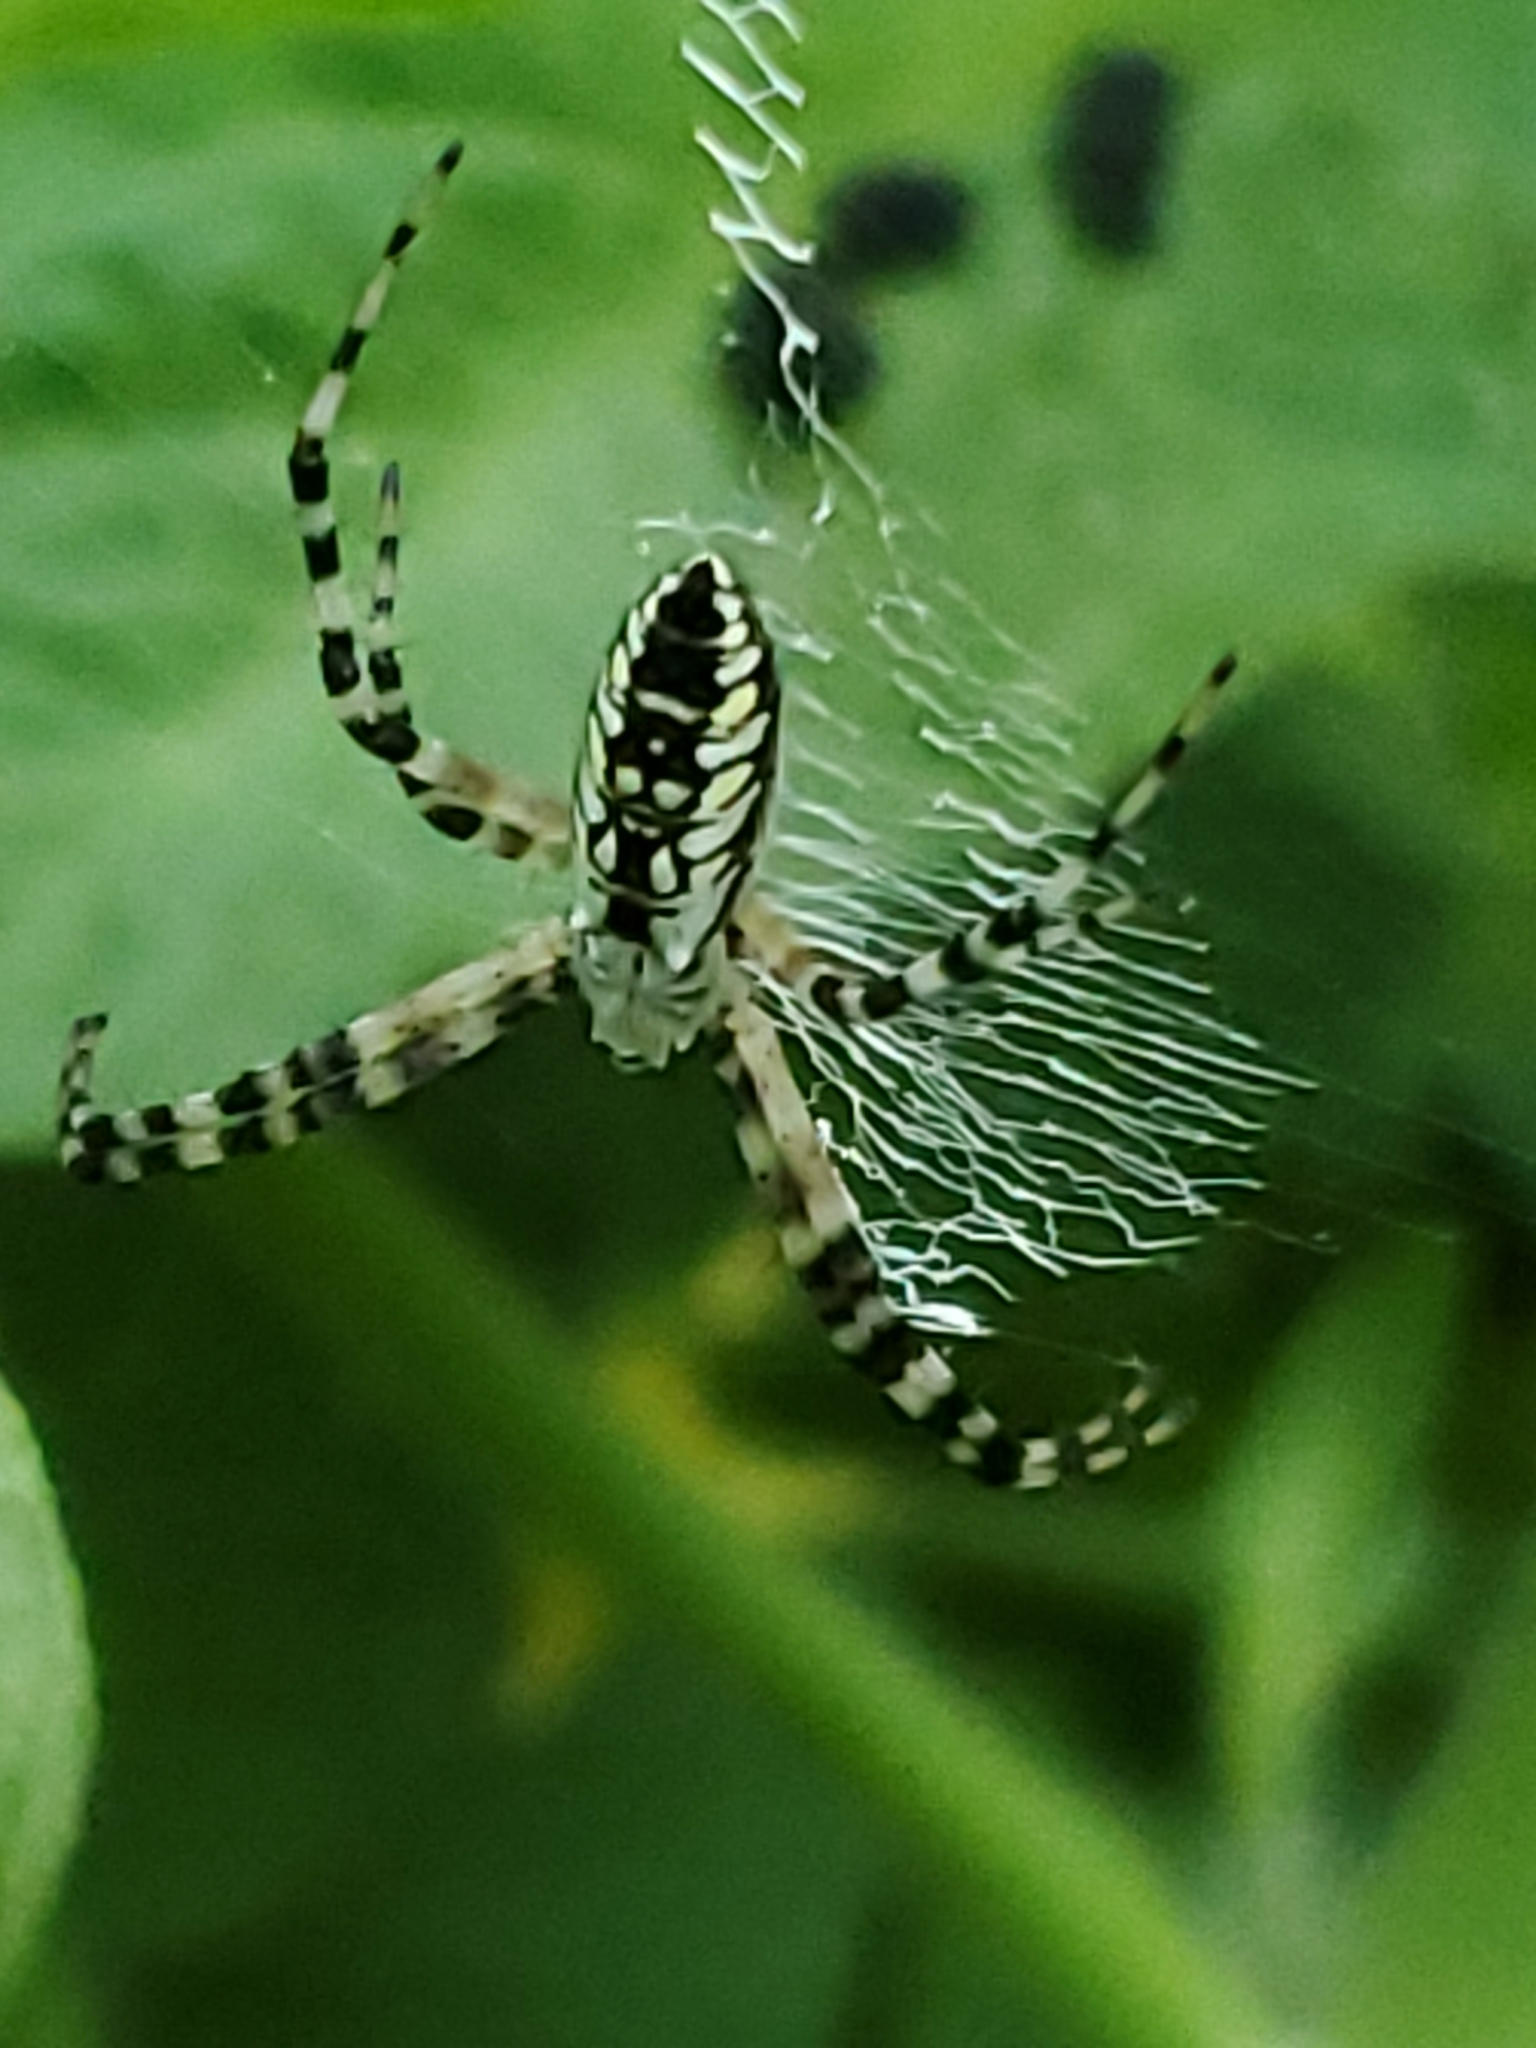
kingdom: Animalia
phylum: Arthropoda
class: Arachnida
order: Araneae
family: Araneidae
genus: Argiope
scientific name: Argiope aurantia
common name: Orb weavers
